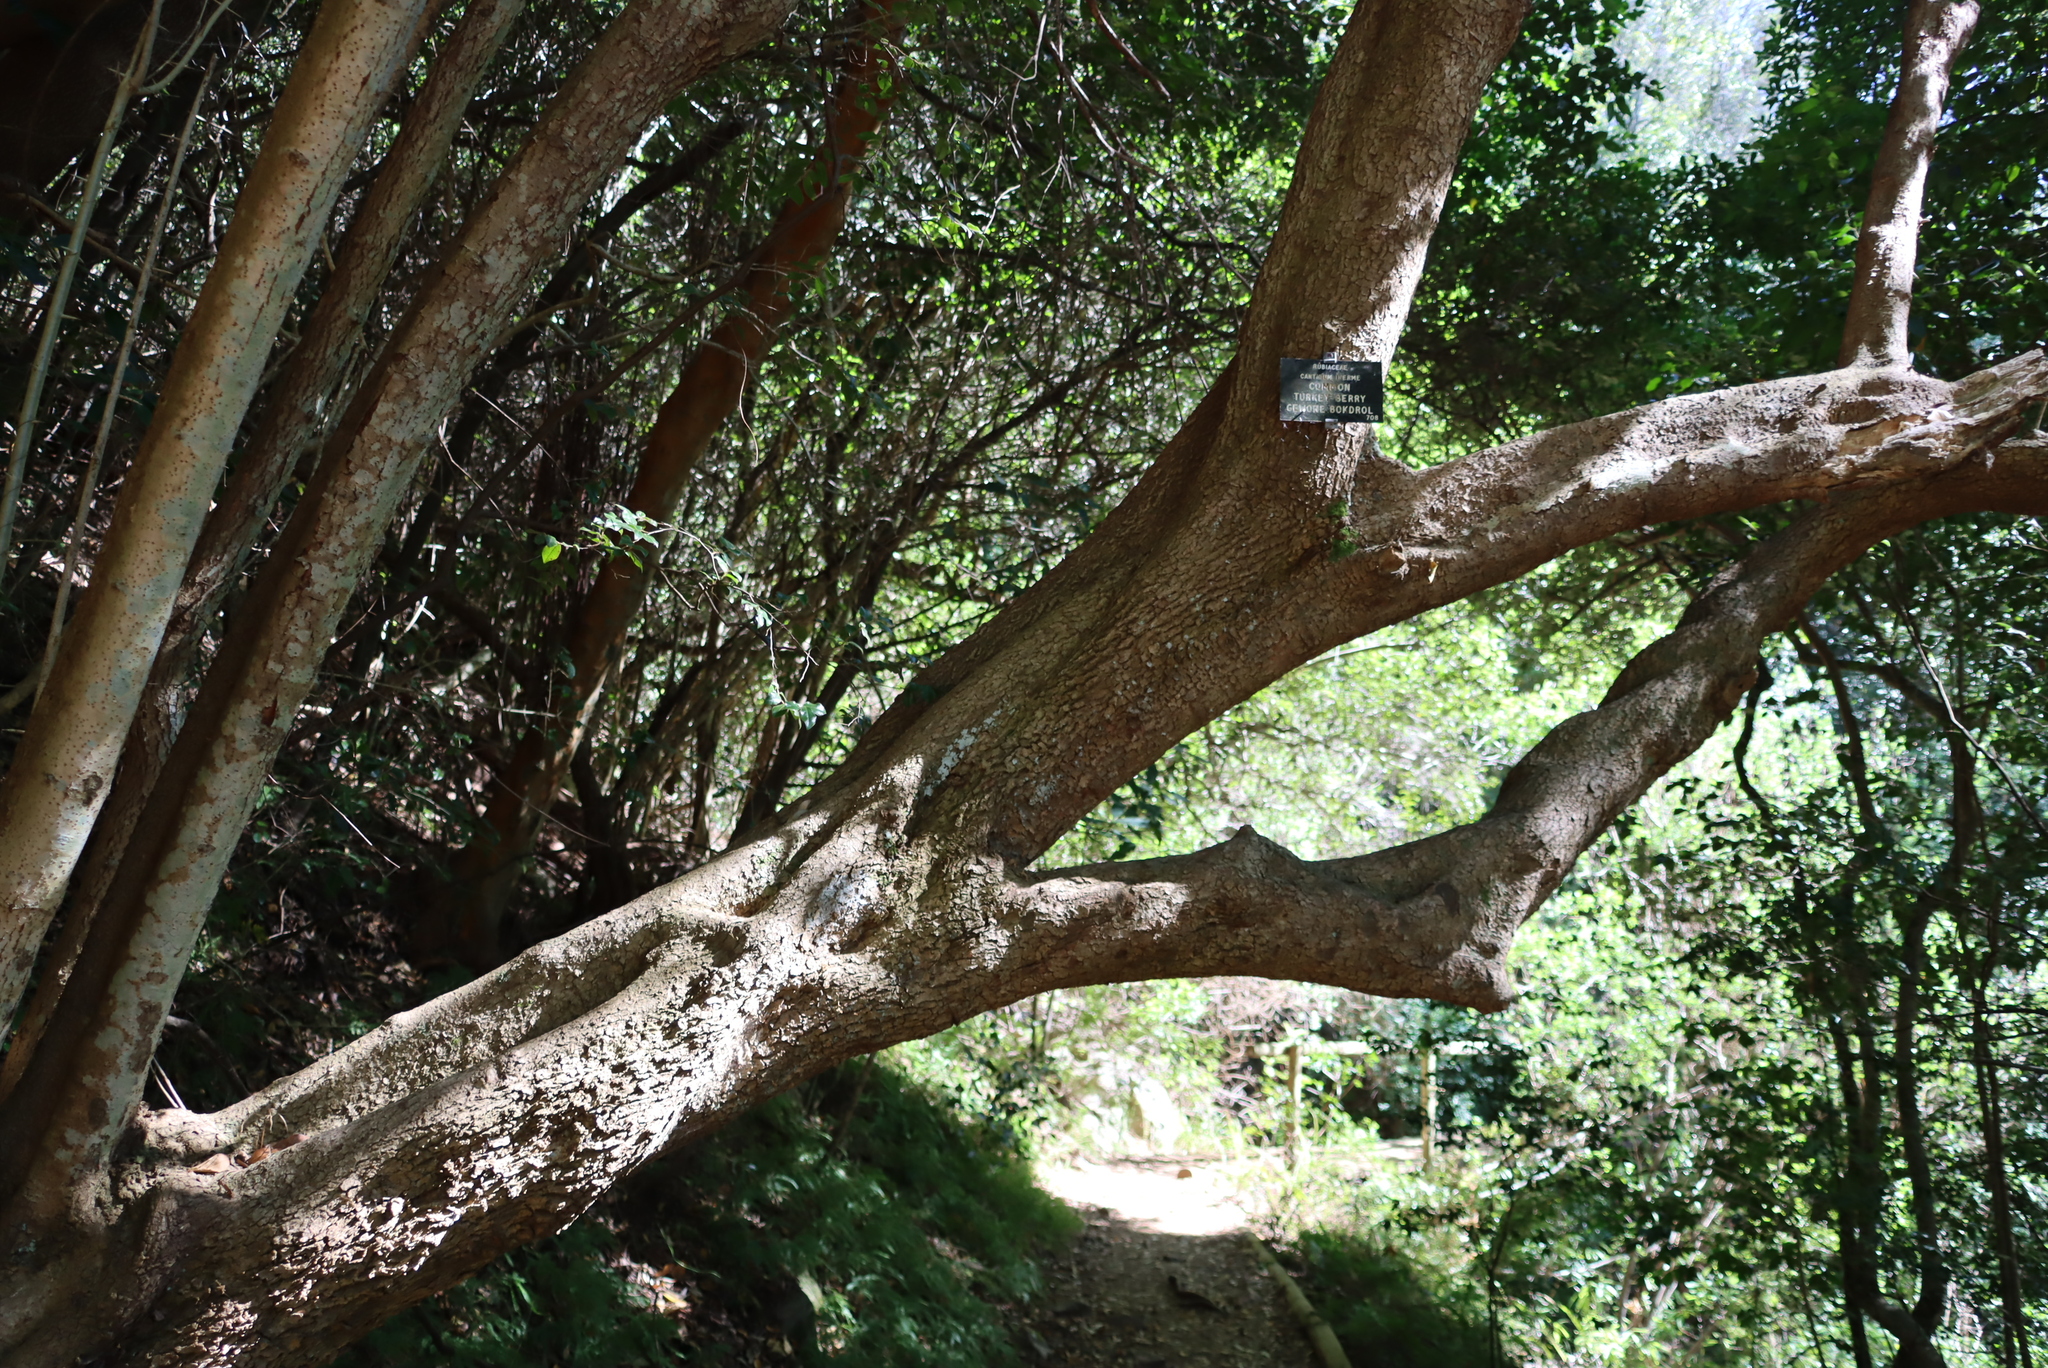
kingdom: Plantae
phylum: Tracheophyta
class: Magnoliopsida
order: Gentianales
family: Rubiaceae
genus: Canthium
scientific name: Canthium inerme
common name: Unarmed turkey-berry
